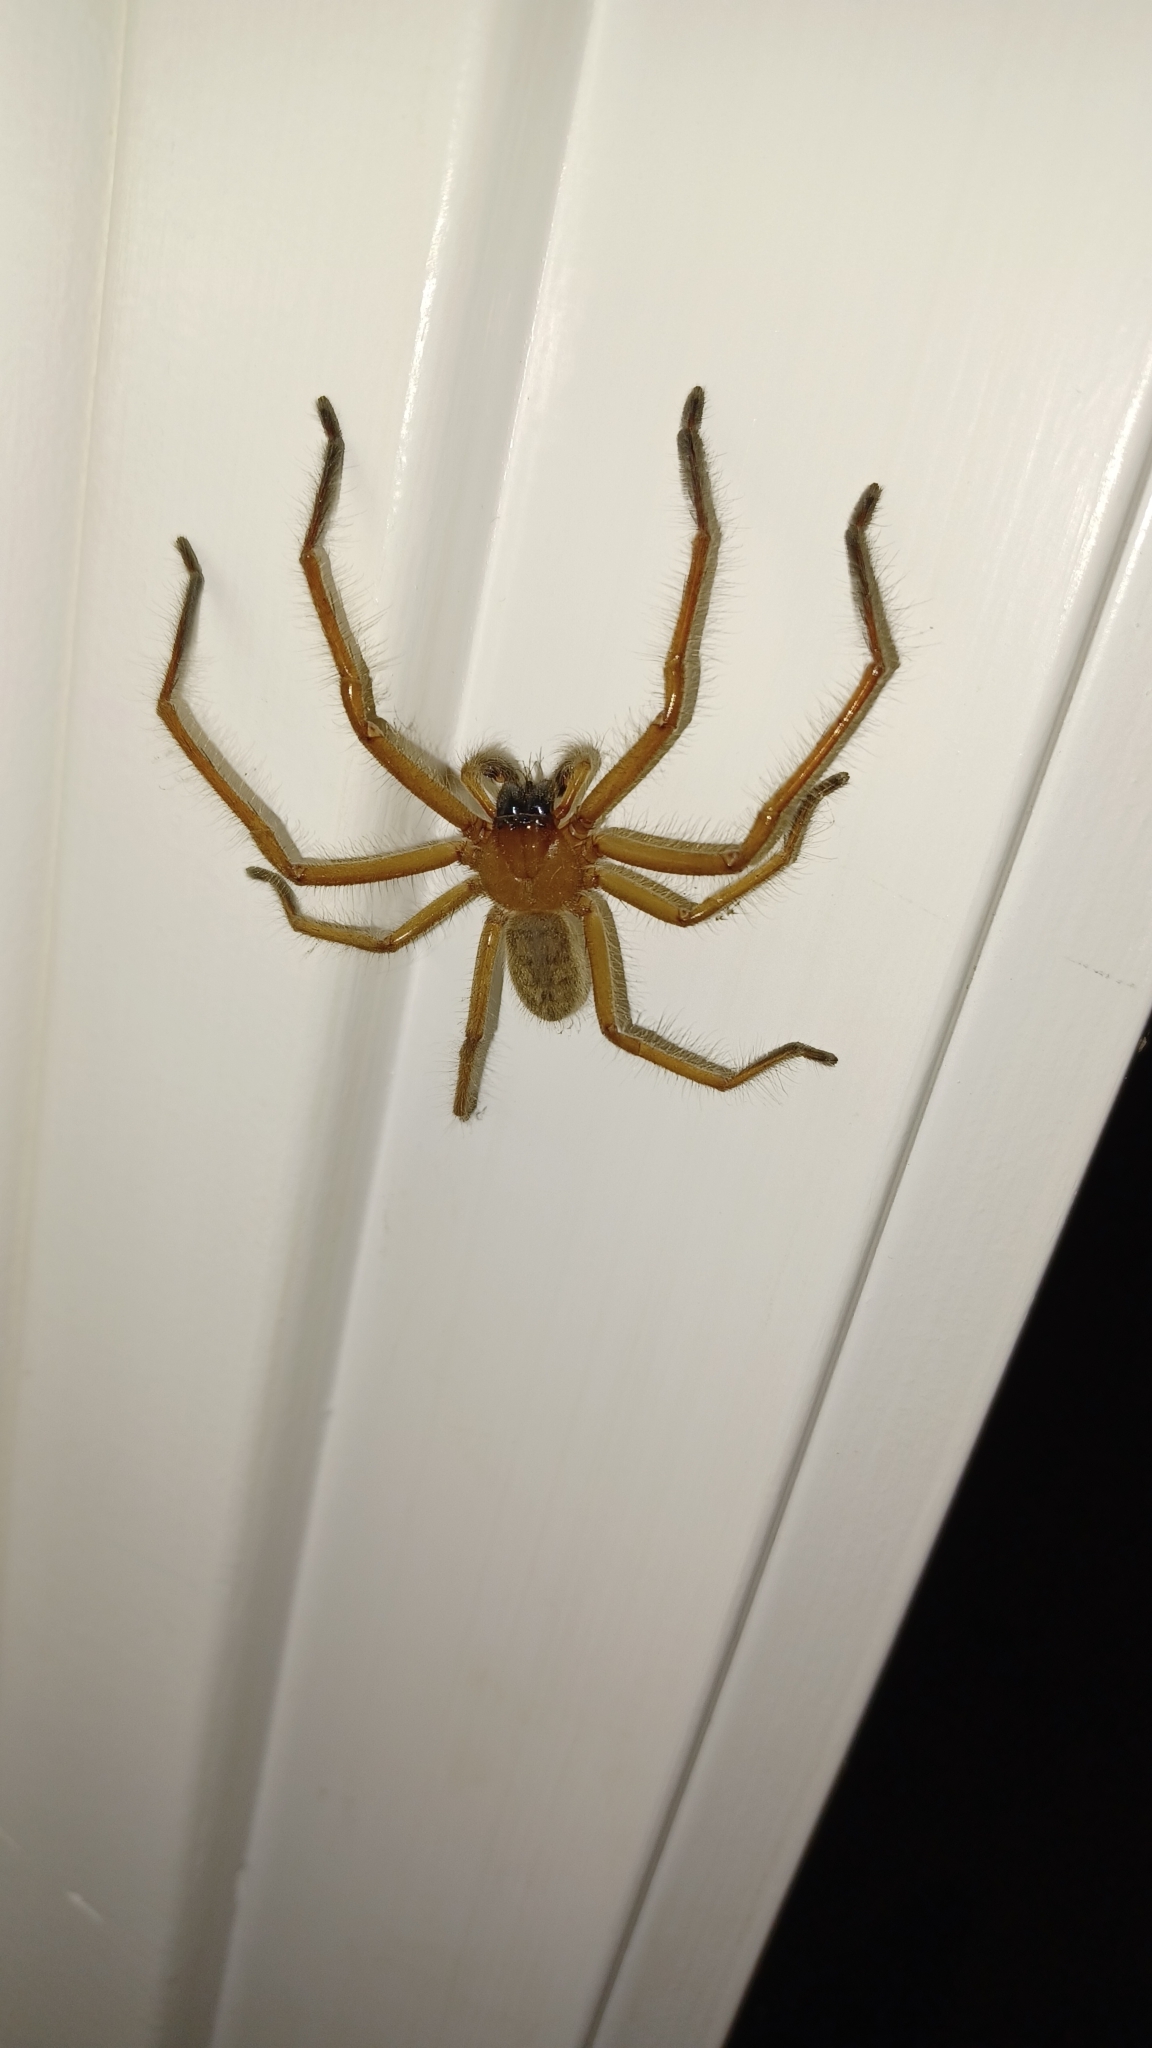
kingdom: Animalia
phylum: Arthropoda
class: Arachnida
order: Araneae
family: Sparassidae
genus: Delena
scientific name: Delena cancerides
